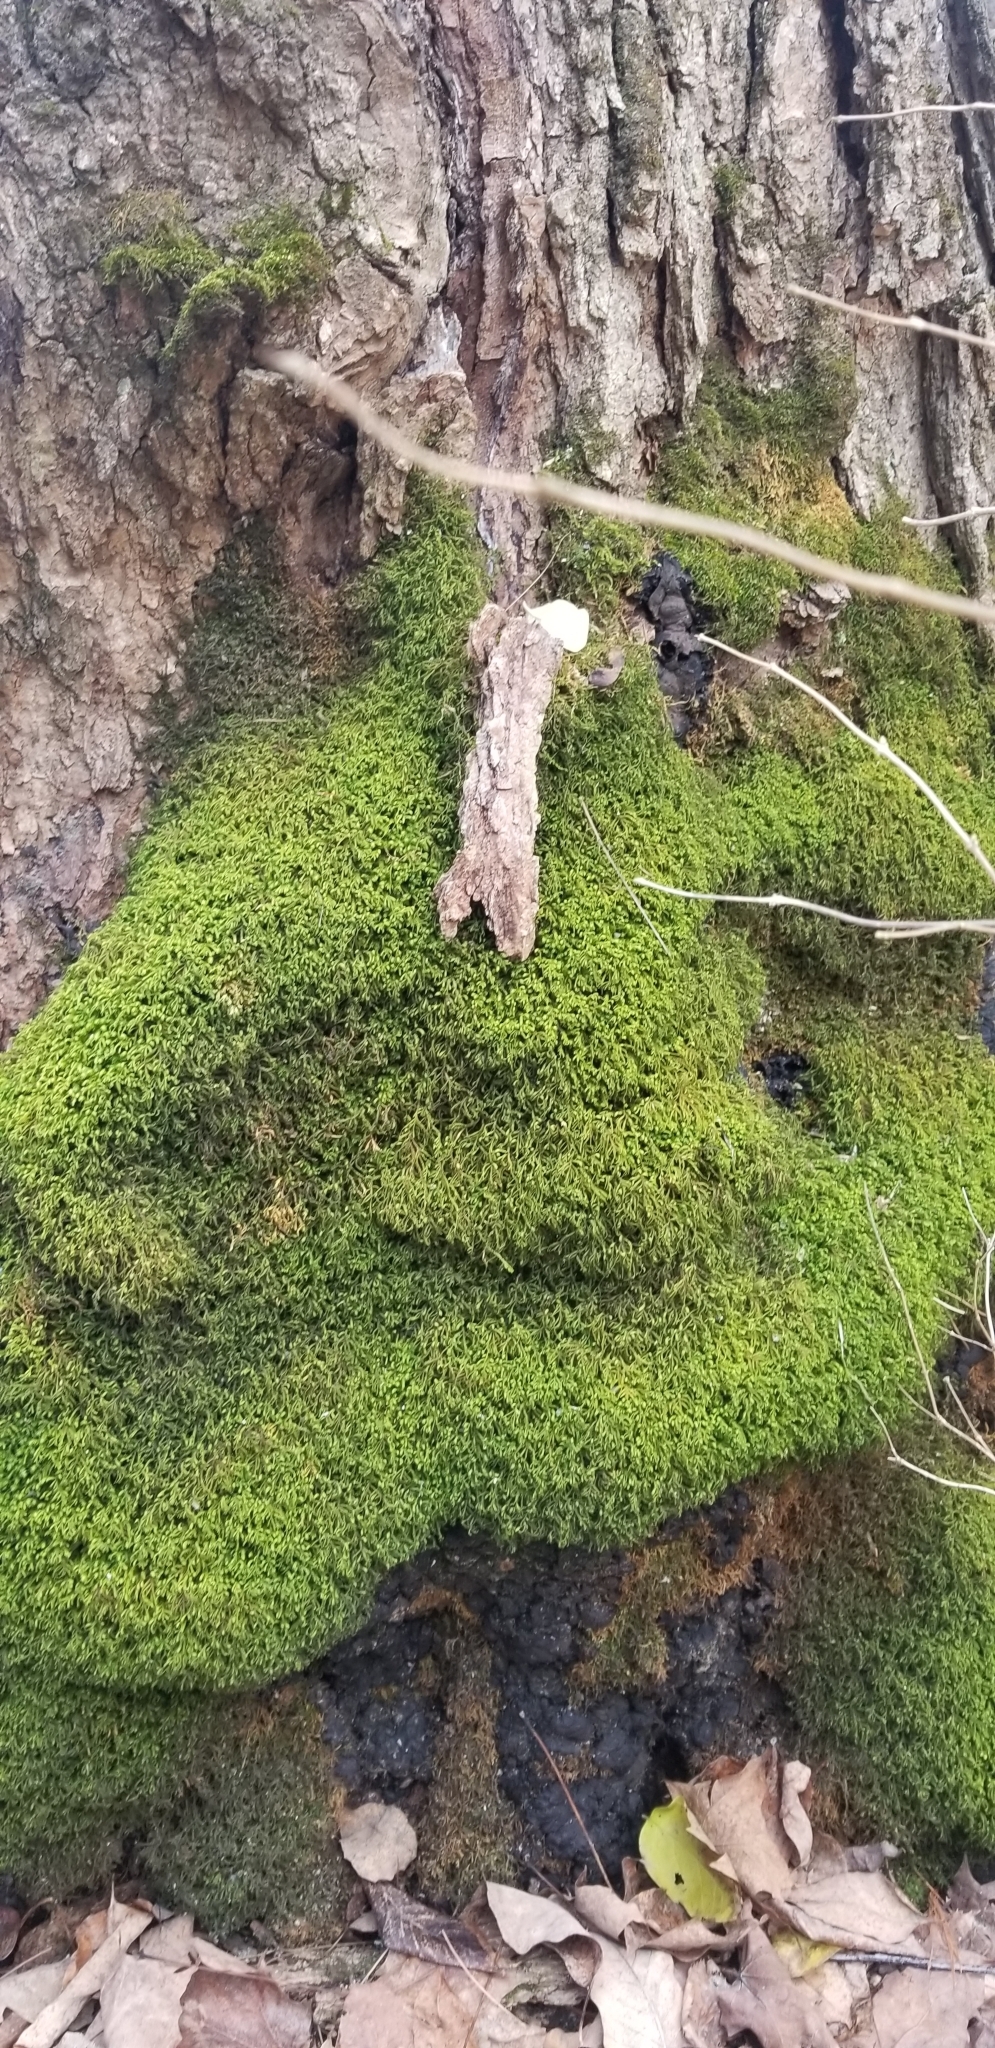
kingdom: Plantae
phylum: Bryophyta
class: Bryopsida
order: Hypnales
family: Neckeraceae
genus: Pseudanomodon
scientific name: Pseudanomodon attenuatus
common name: Tree-skirt moss
